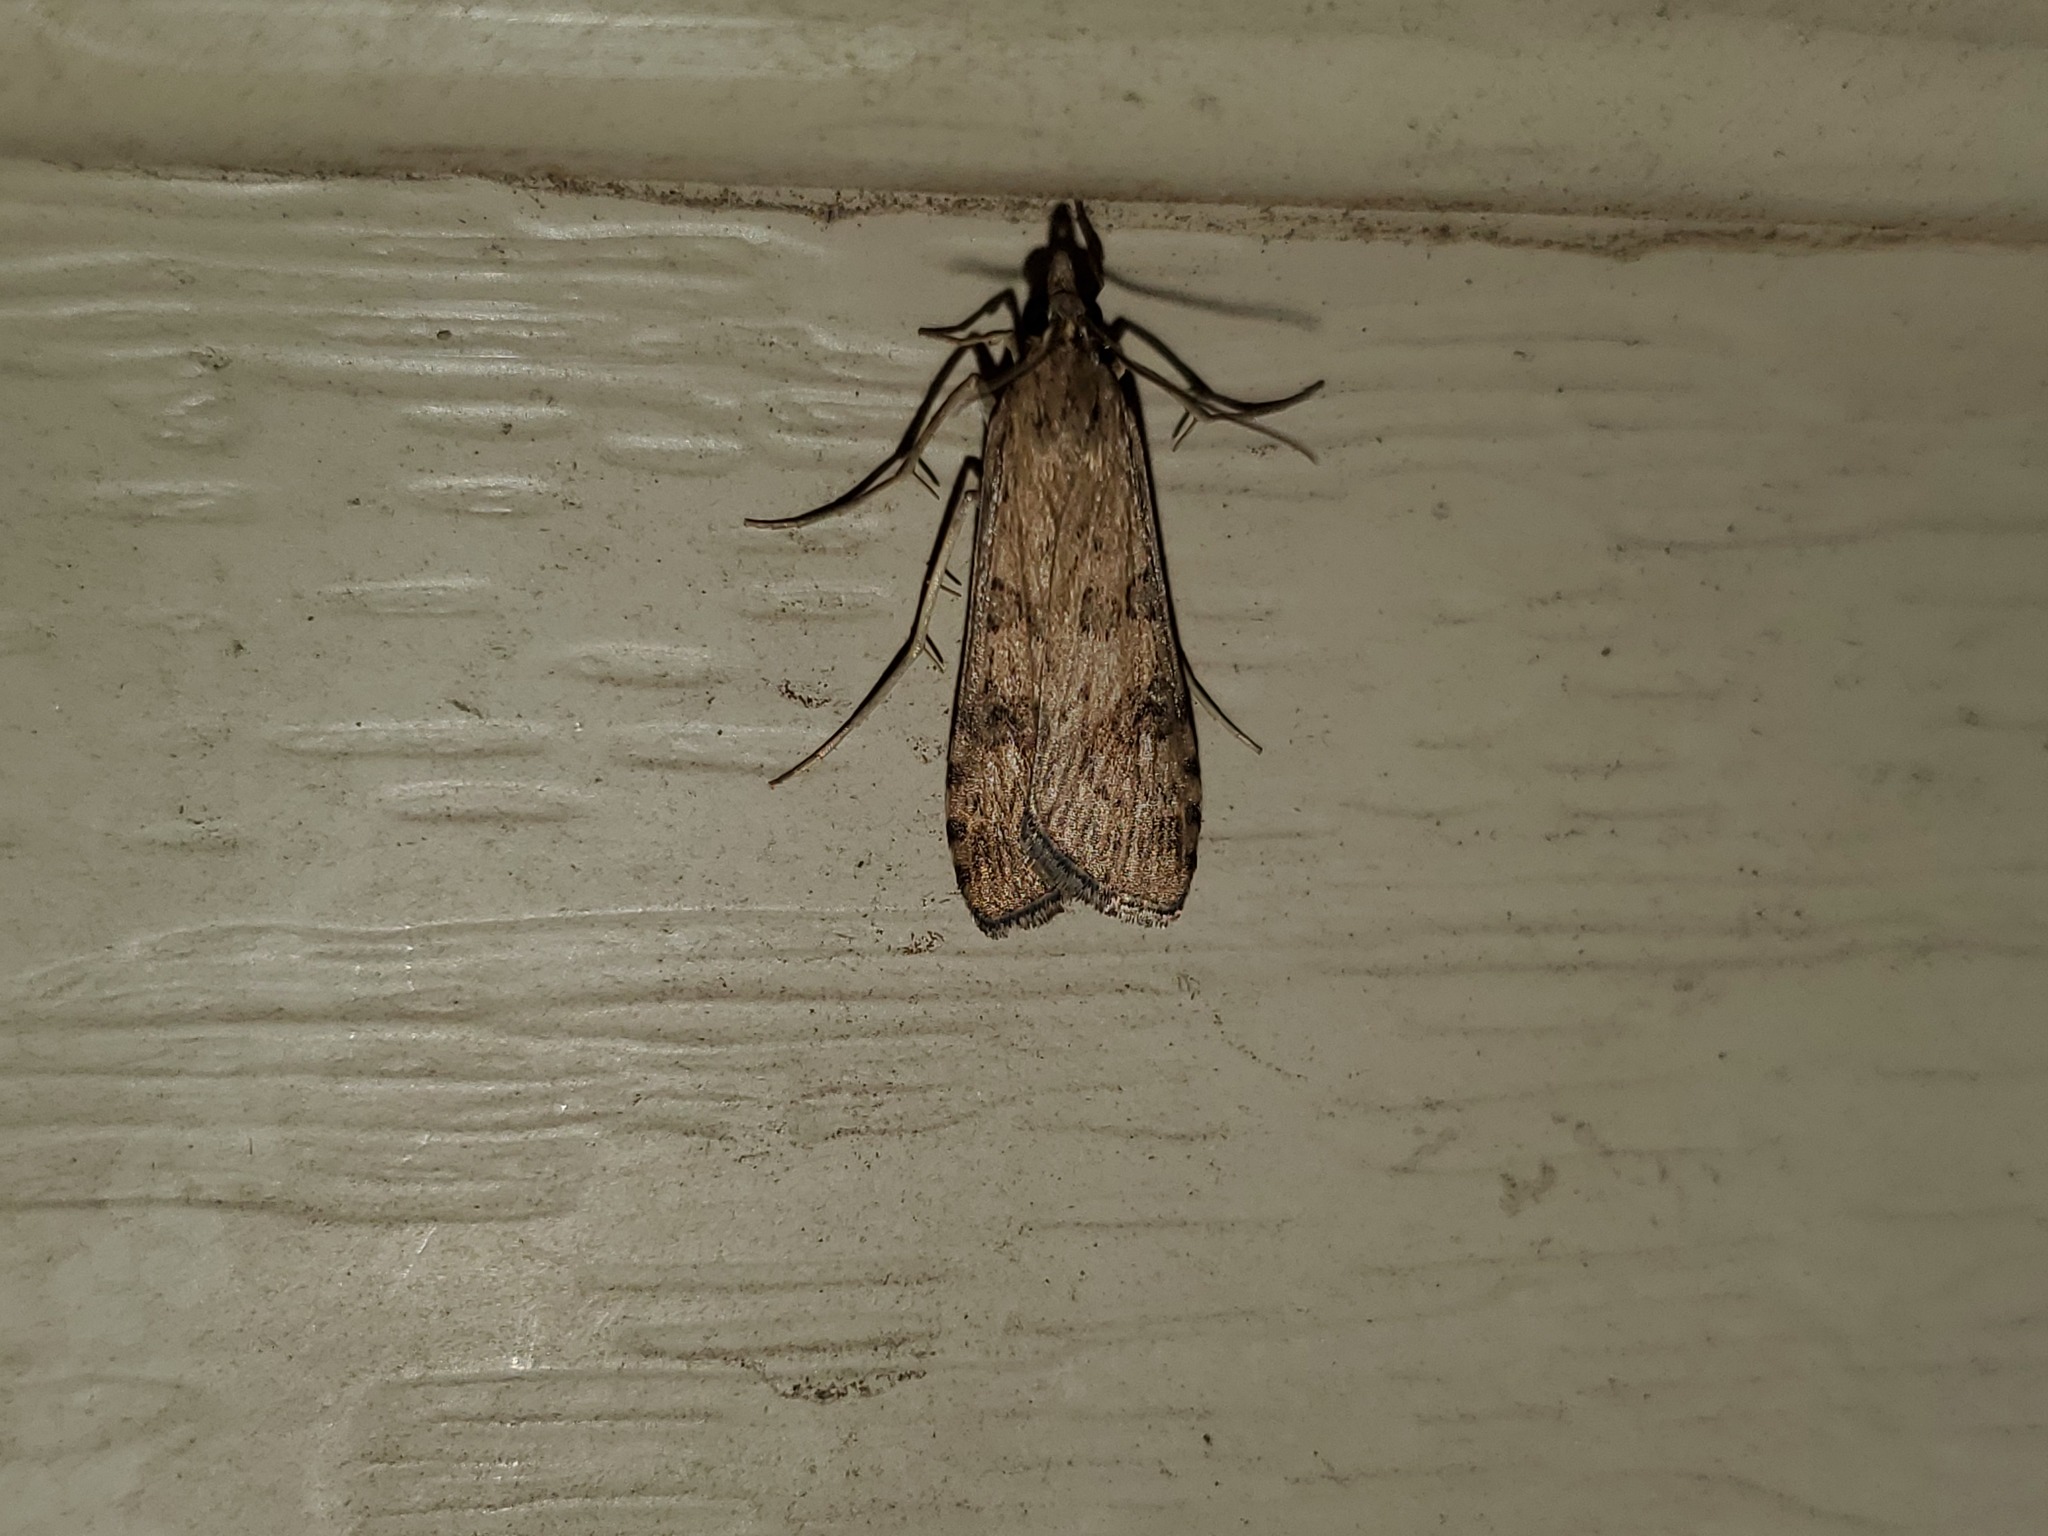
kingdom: Animalia
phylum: Arthropoda
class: Insecta
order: Lepidoptera
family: Crambidae
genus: Nomophila
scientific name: Nomophila nearctica
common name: American rush veneer
